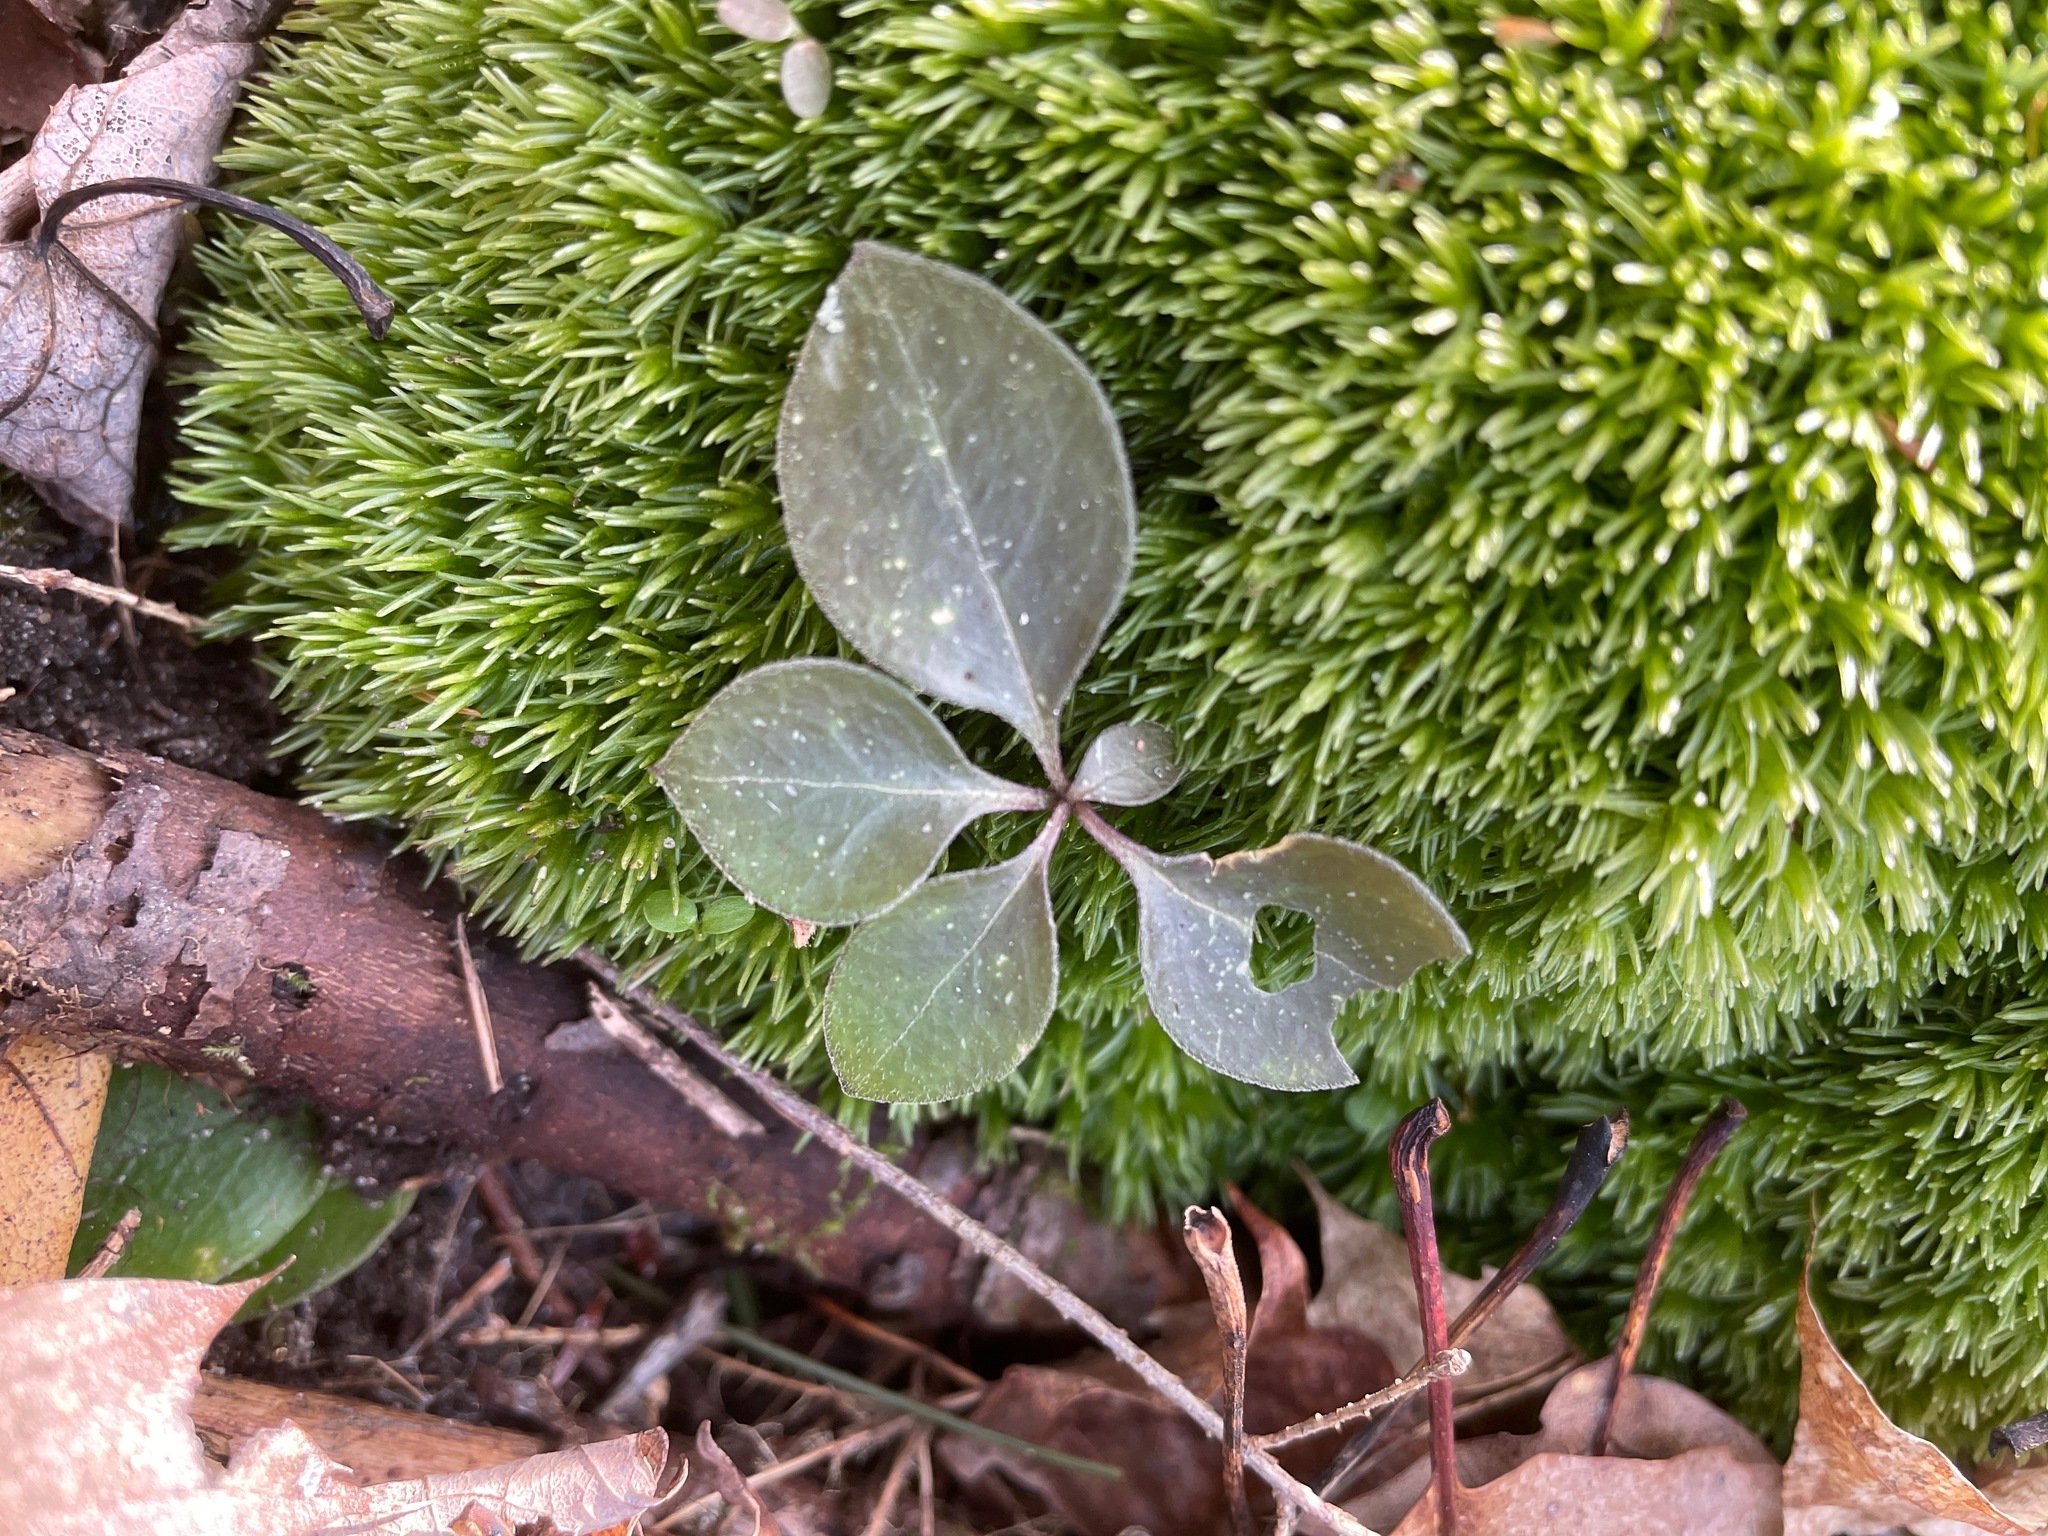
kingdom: Plantae
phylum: Tracheophyta
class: Magnoliopsida
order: Fabales
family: Polygalaceae
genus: Polygaloides
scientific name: Polygaloides paucifolia
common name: Bird-on-the-wing
